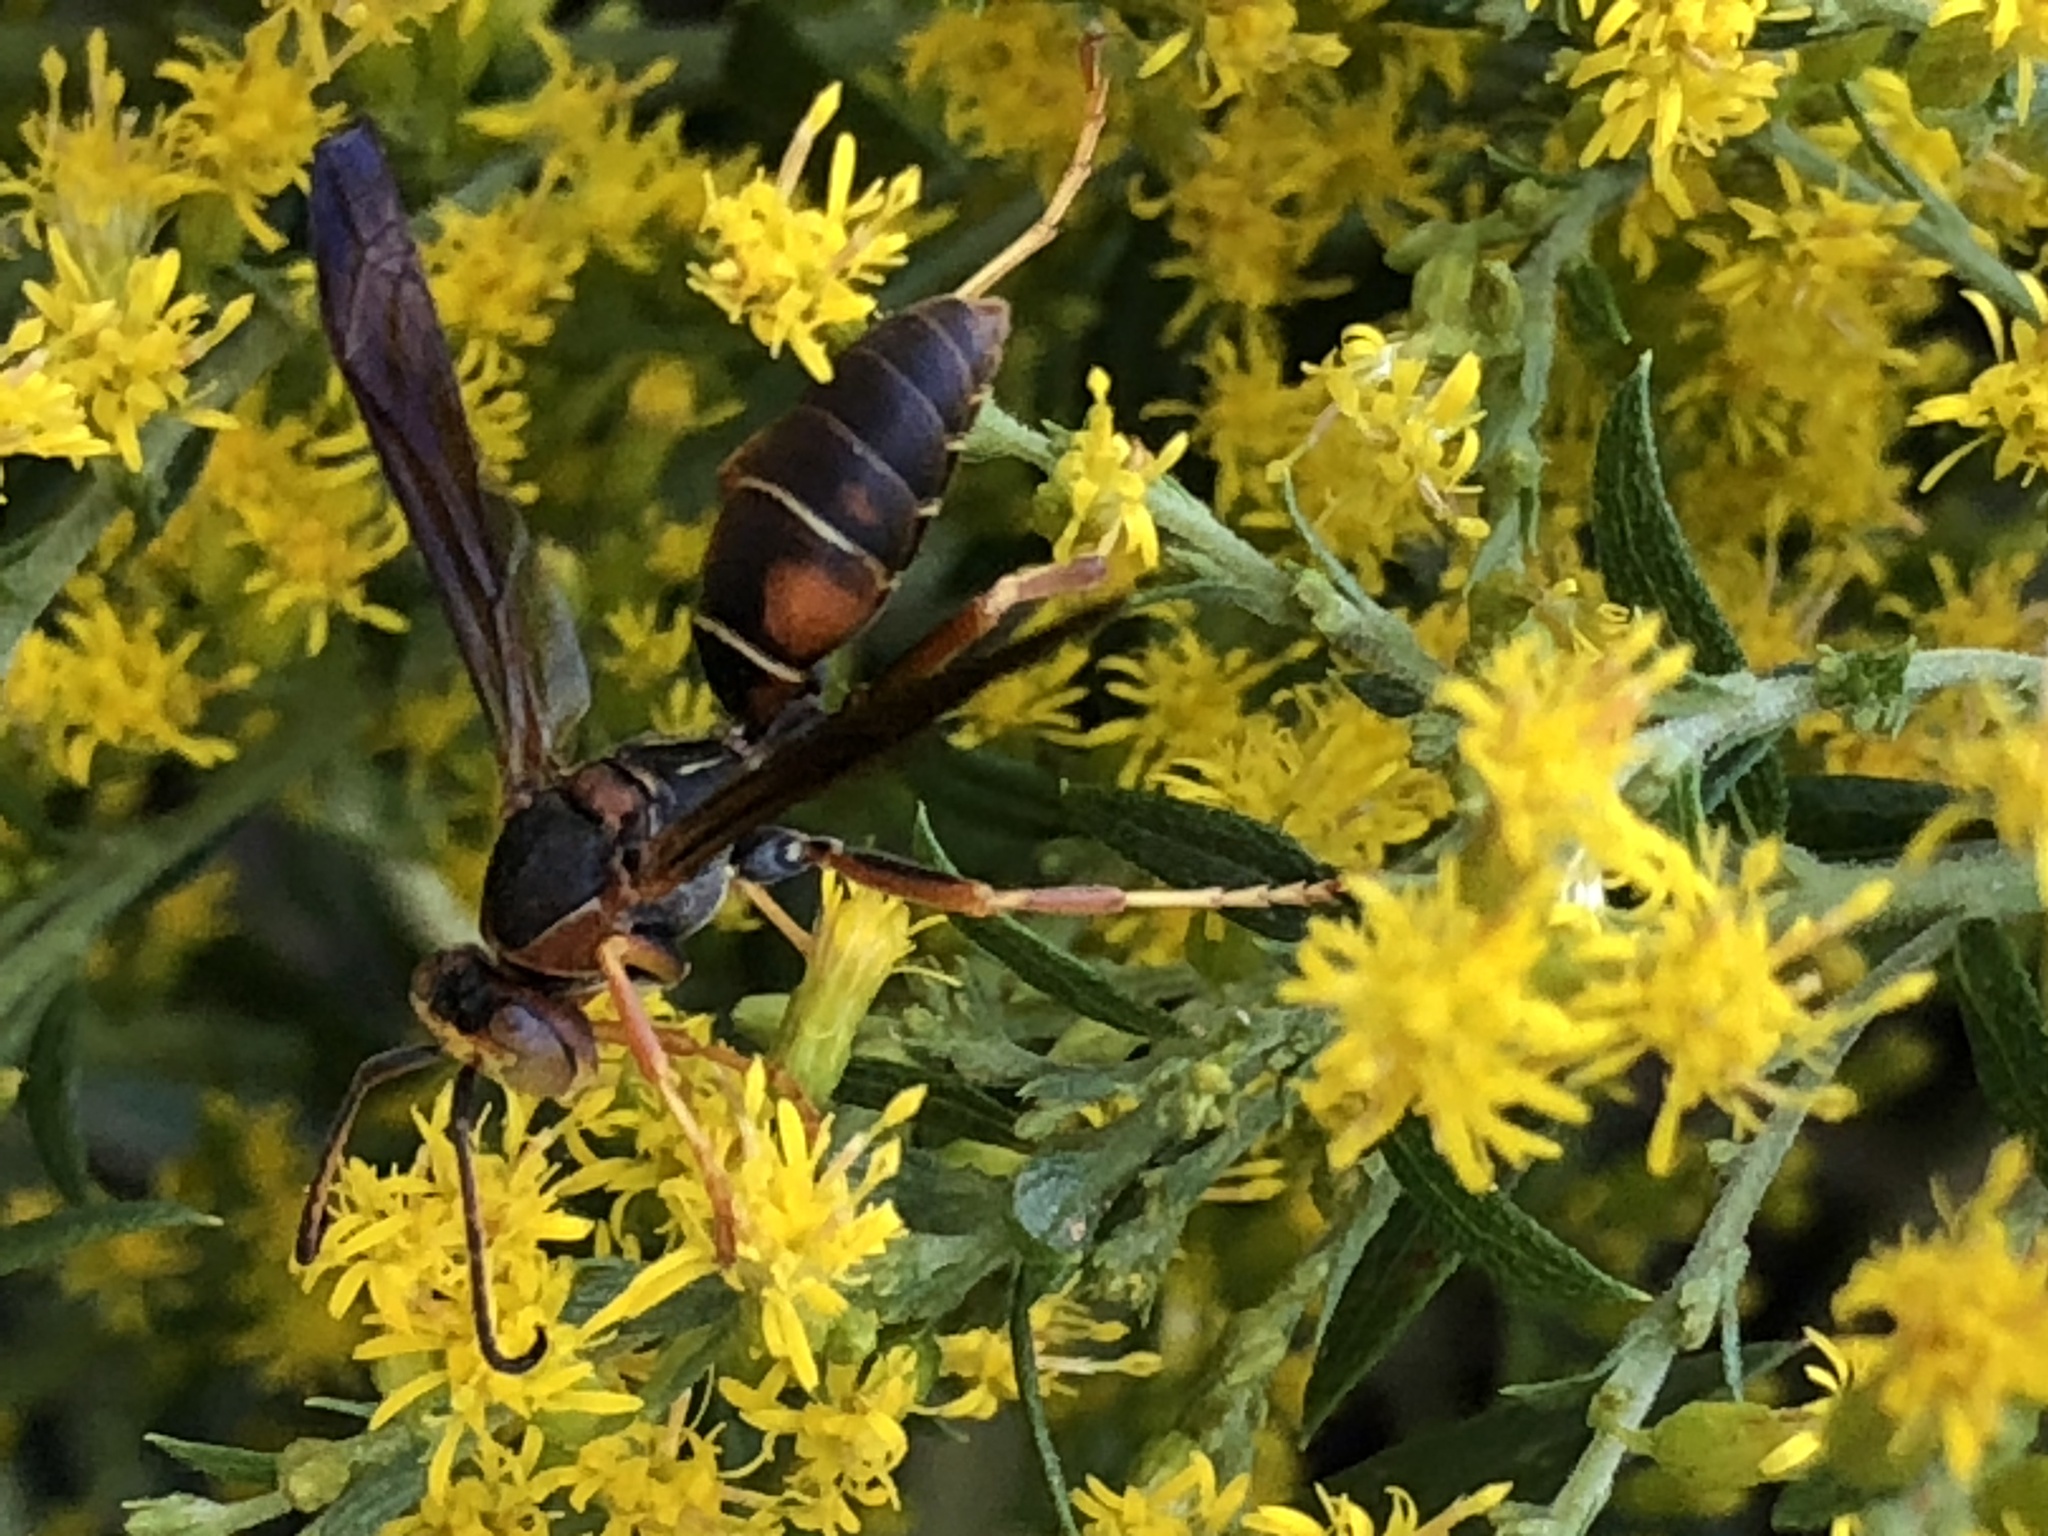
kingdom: Animalia
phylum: Arthropoda
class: Insecta
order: Hymenoptera
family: Eumenidae
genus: Polistes
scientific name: Polistes fuscatus
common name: Dark paper wasp
